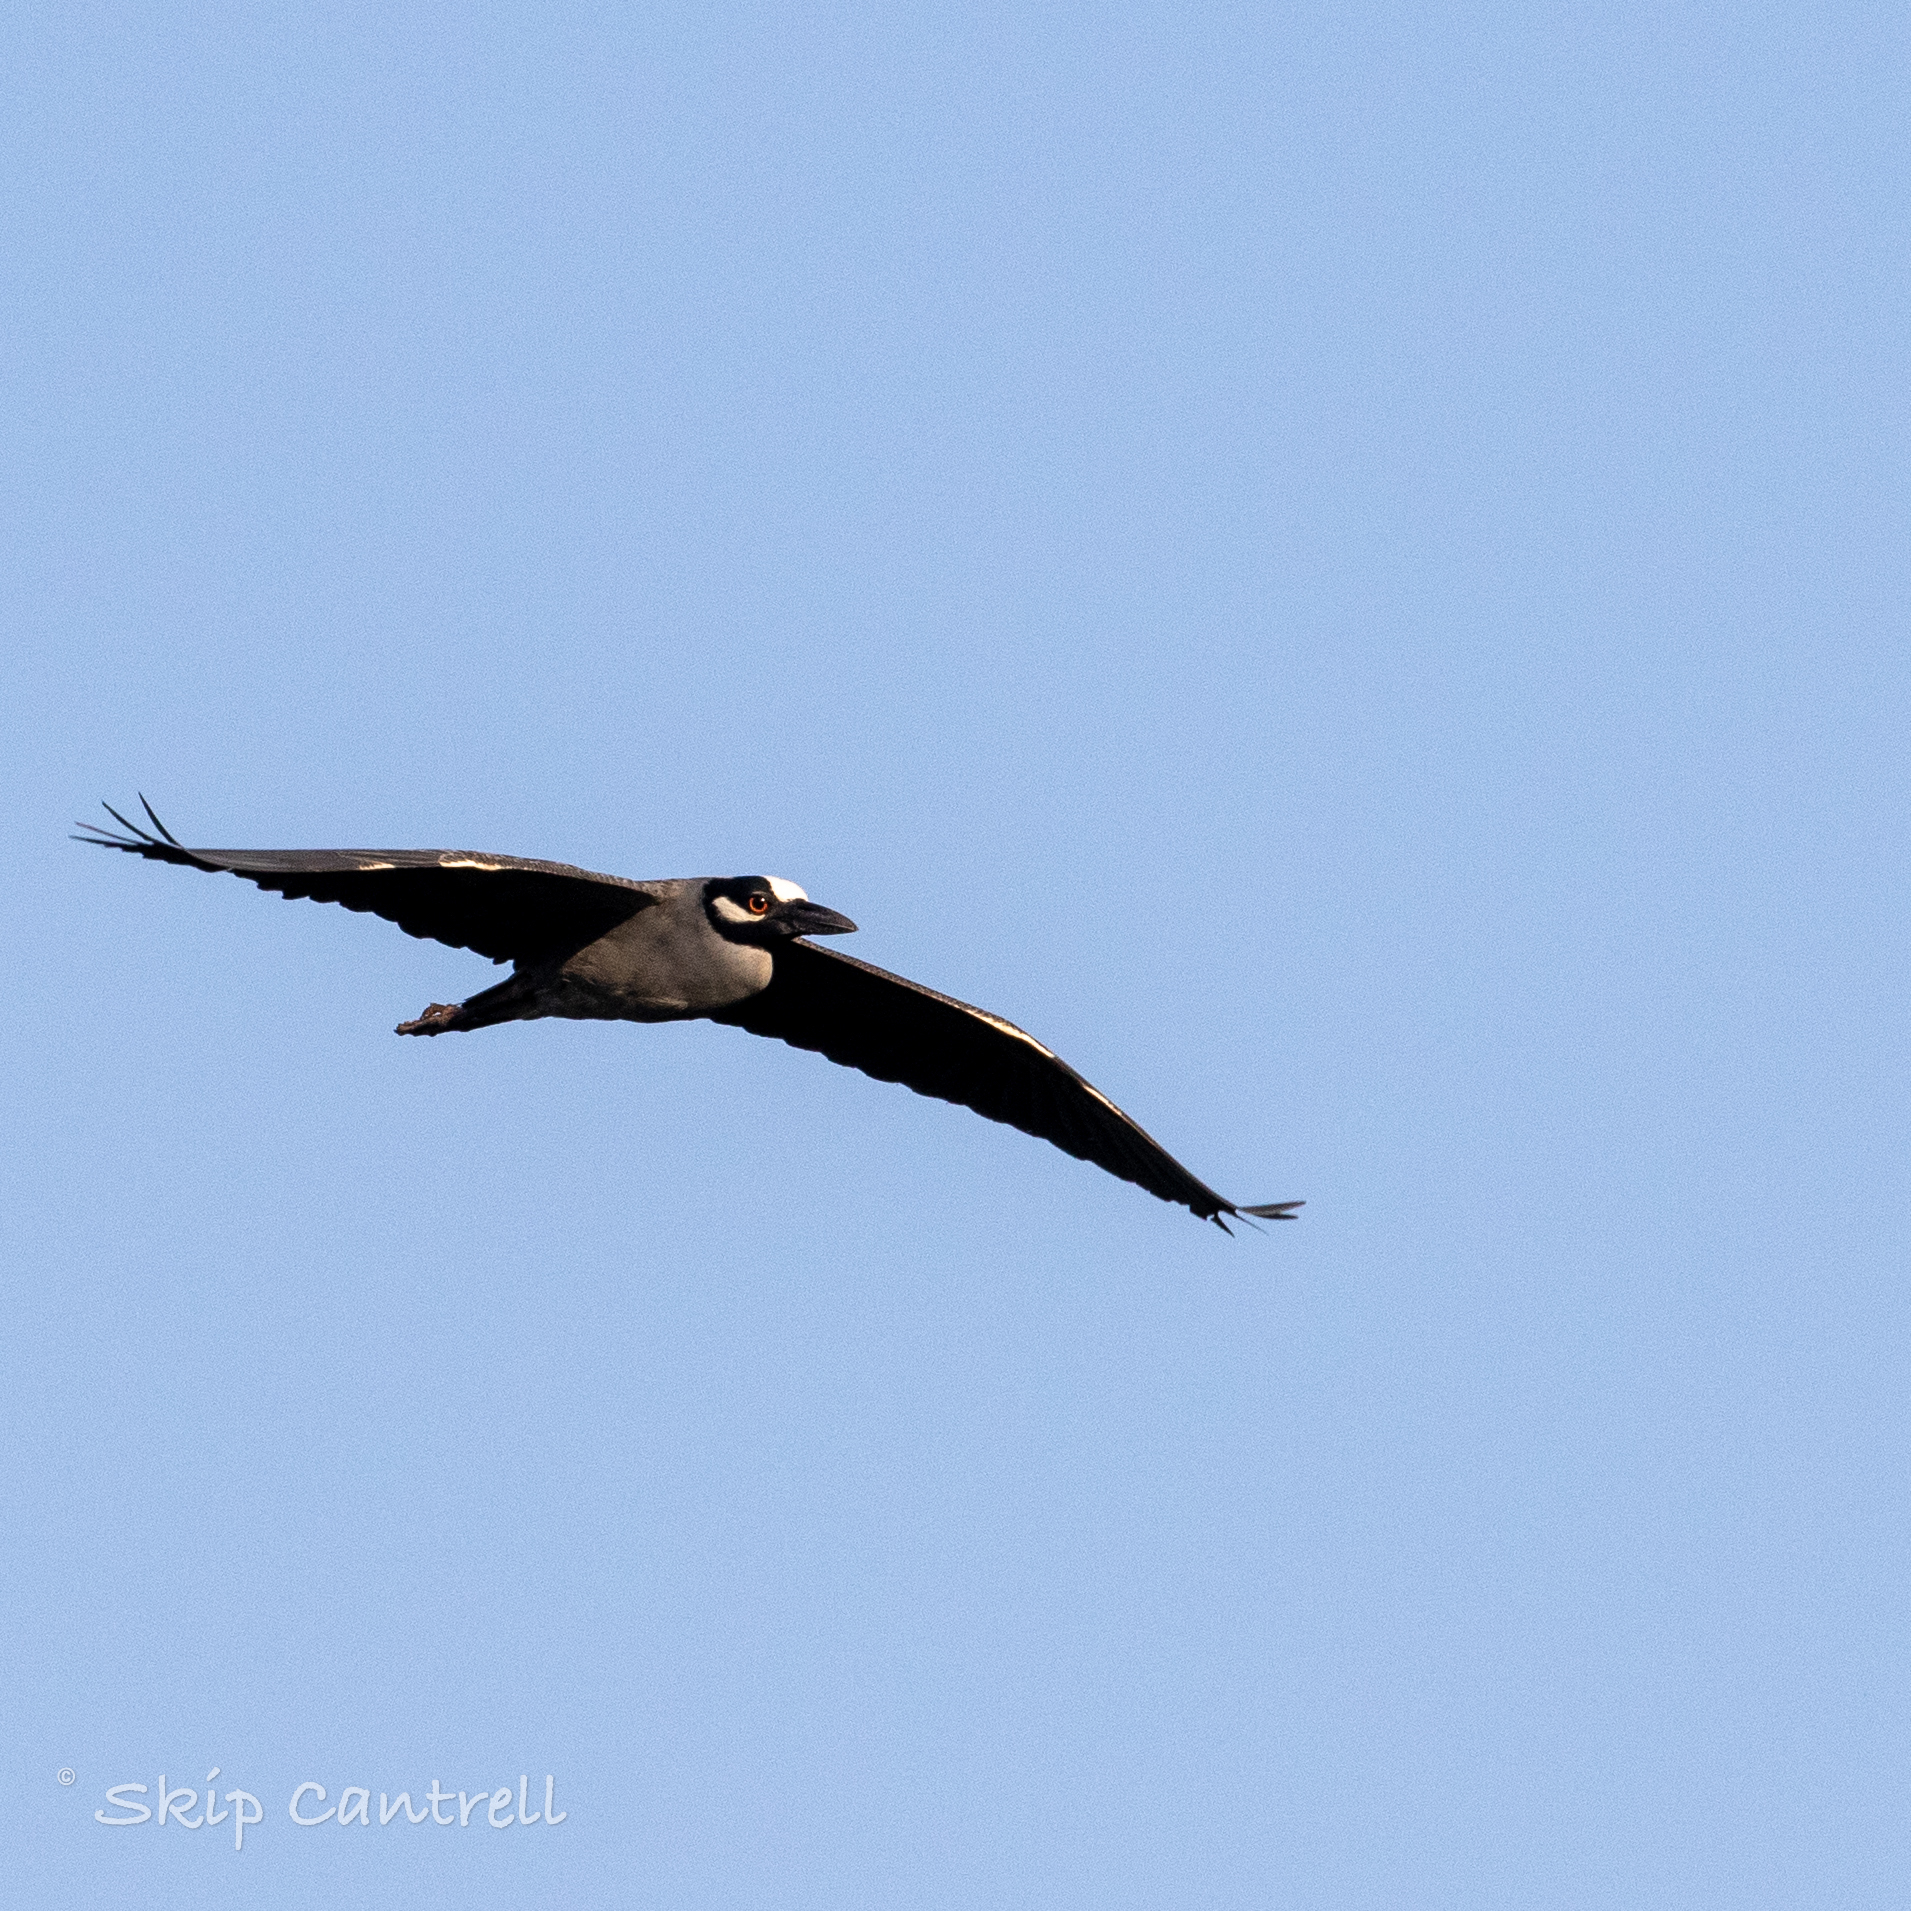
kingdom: Animalia
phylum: Chordata
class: Aves
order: Pelecaniformes
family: Ardeidae
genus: Nyctanassa
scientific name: Nyctanassa violacea
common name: Yellow-crowned night heron
